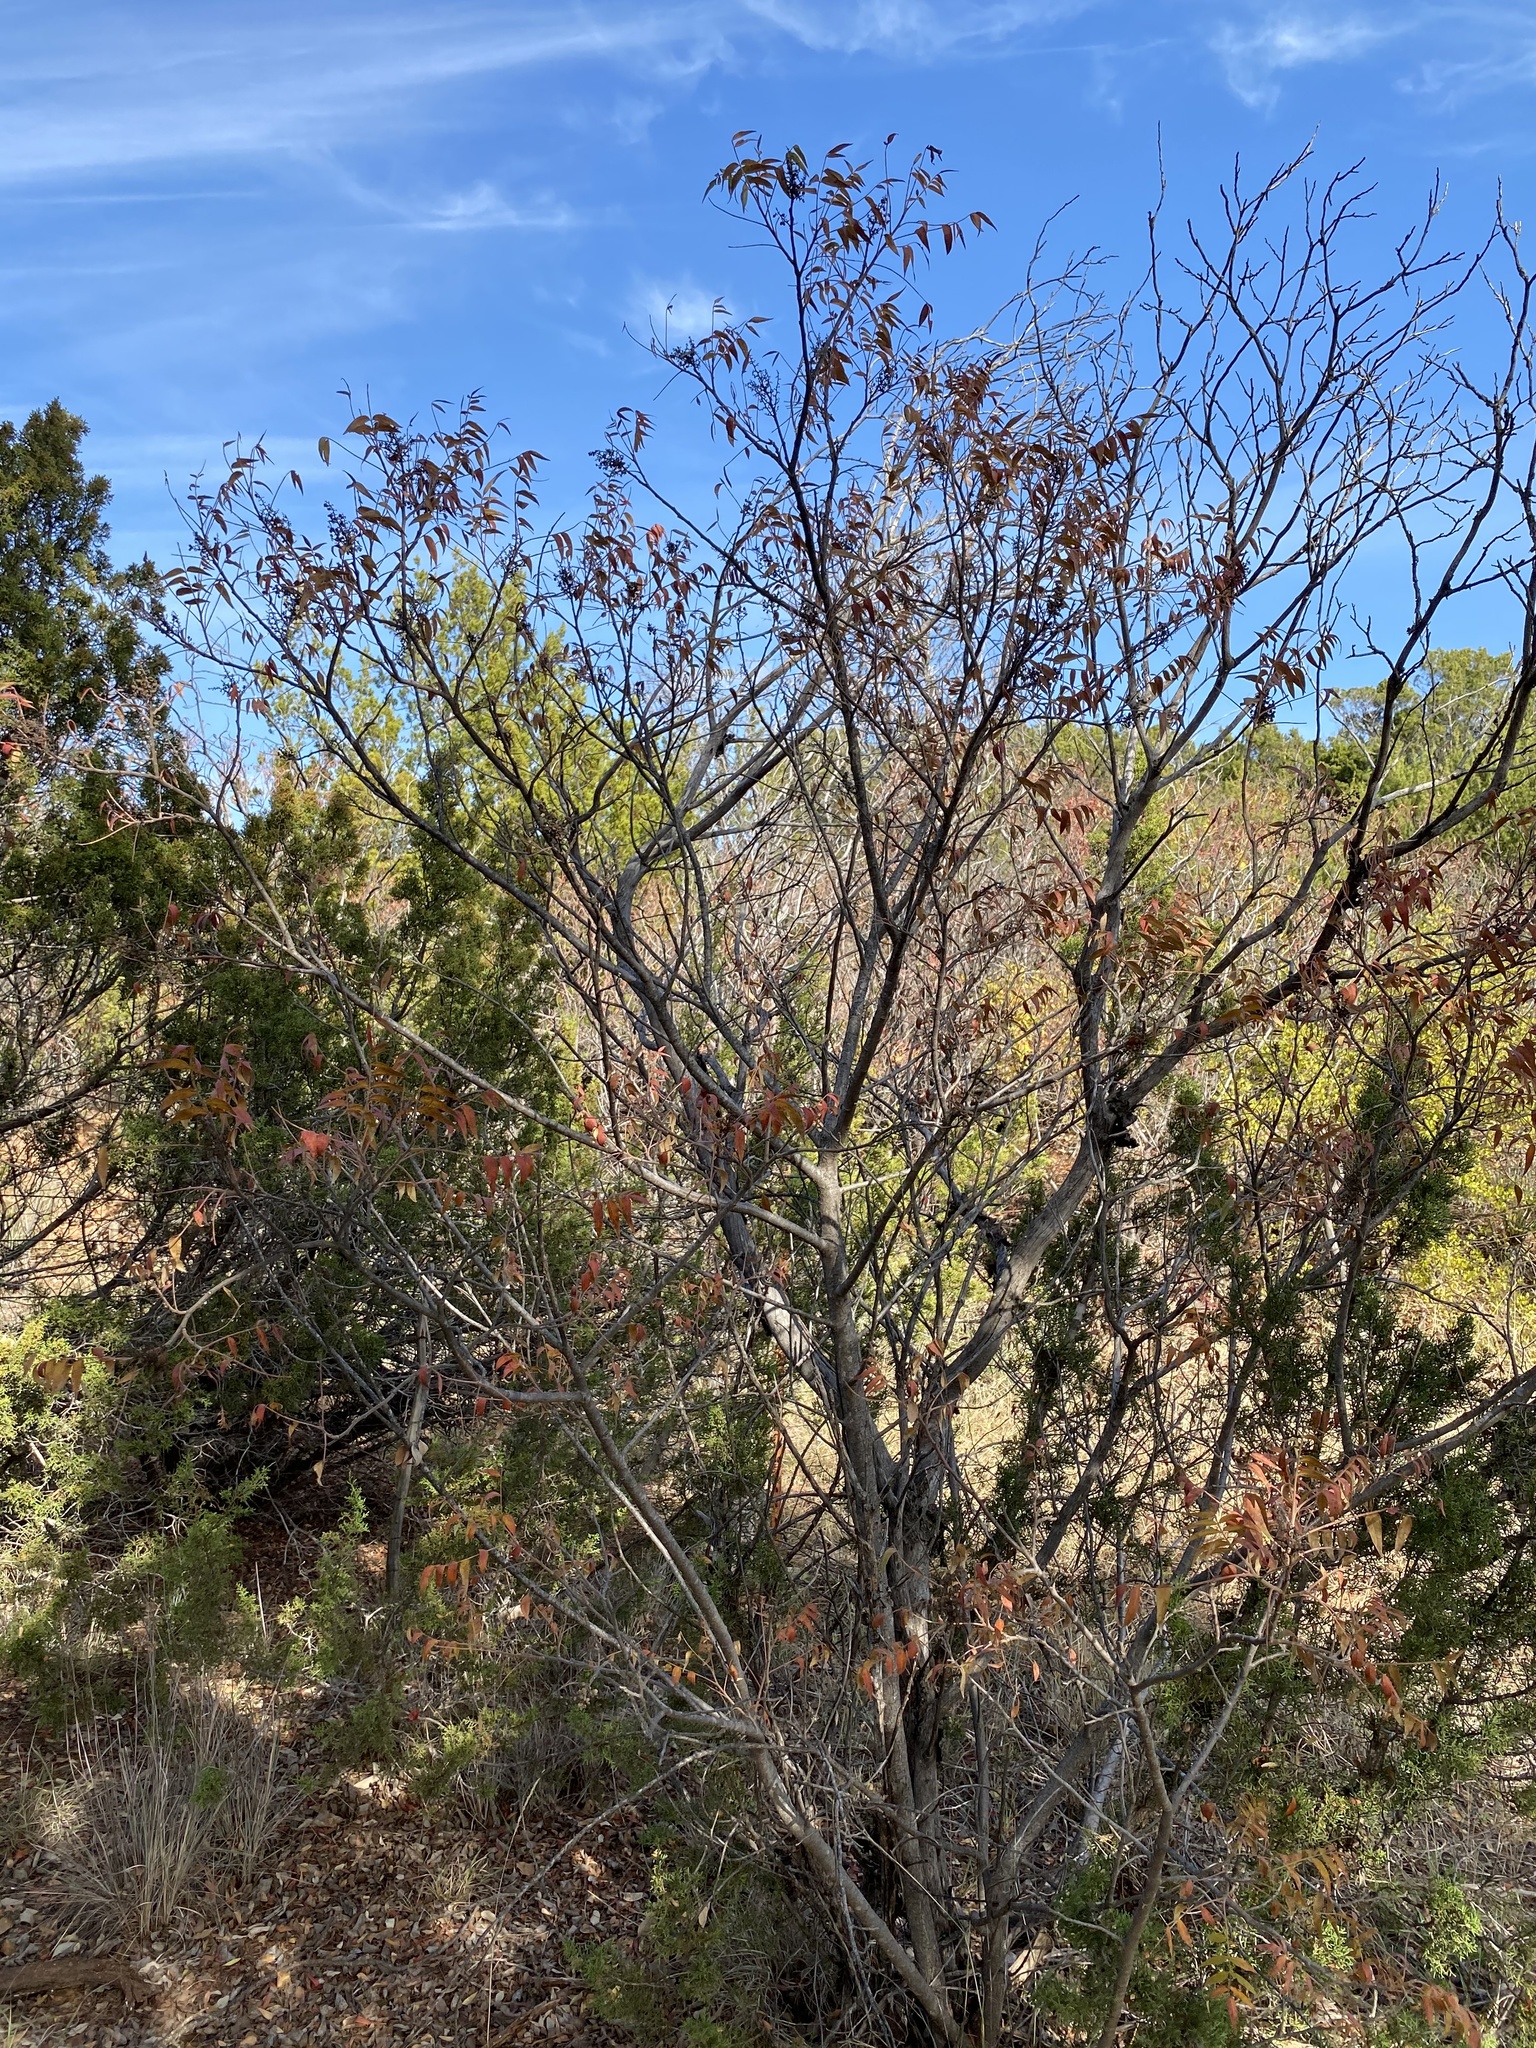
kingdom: Plantae
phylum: Tracheophyta
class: Magnoliopsida
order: Sapindales
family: Anacardiaceae
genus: Rhus
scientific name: Rhus lanceolata
